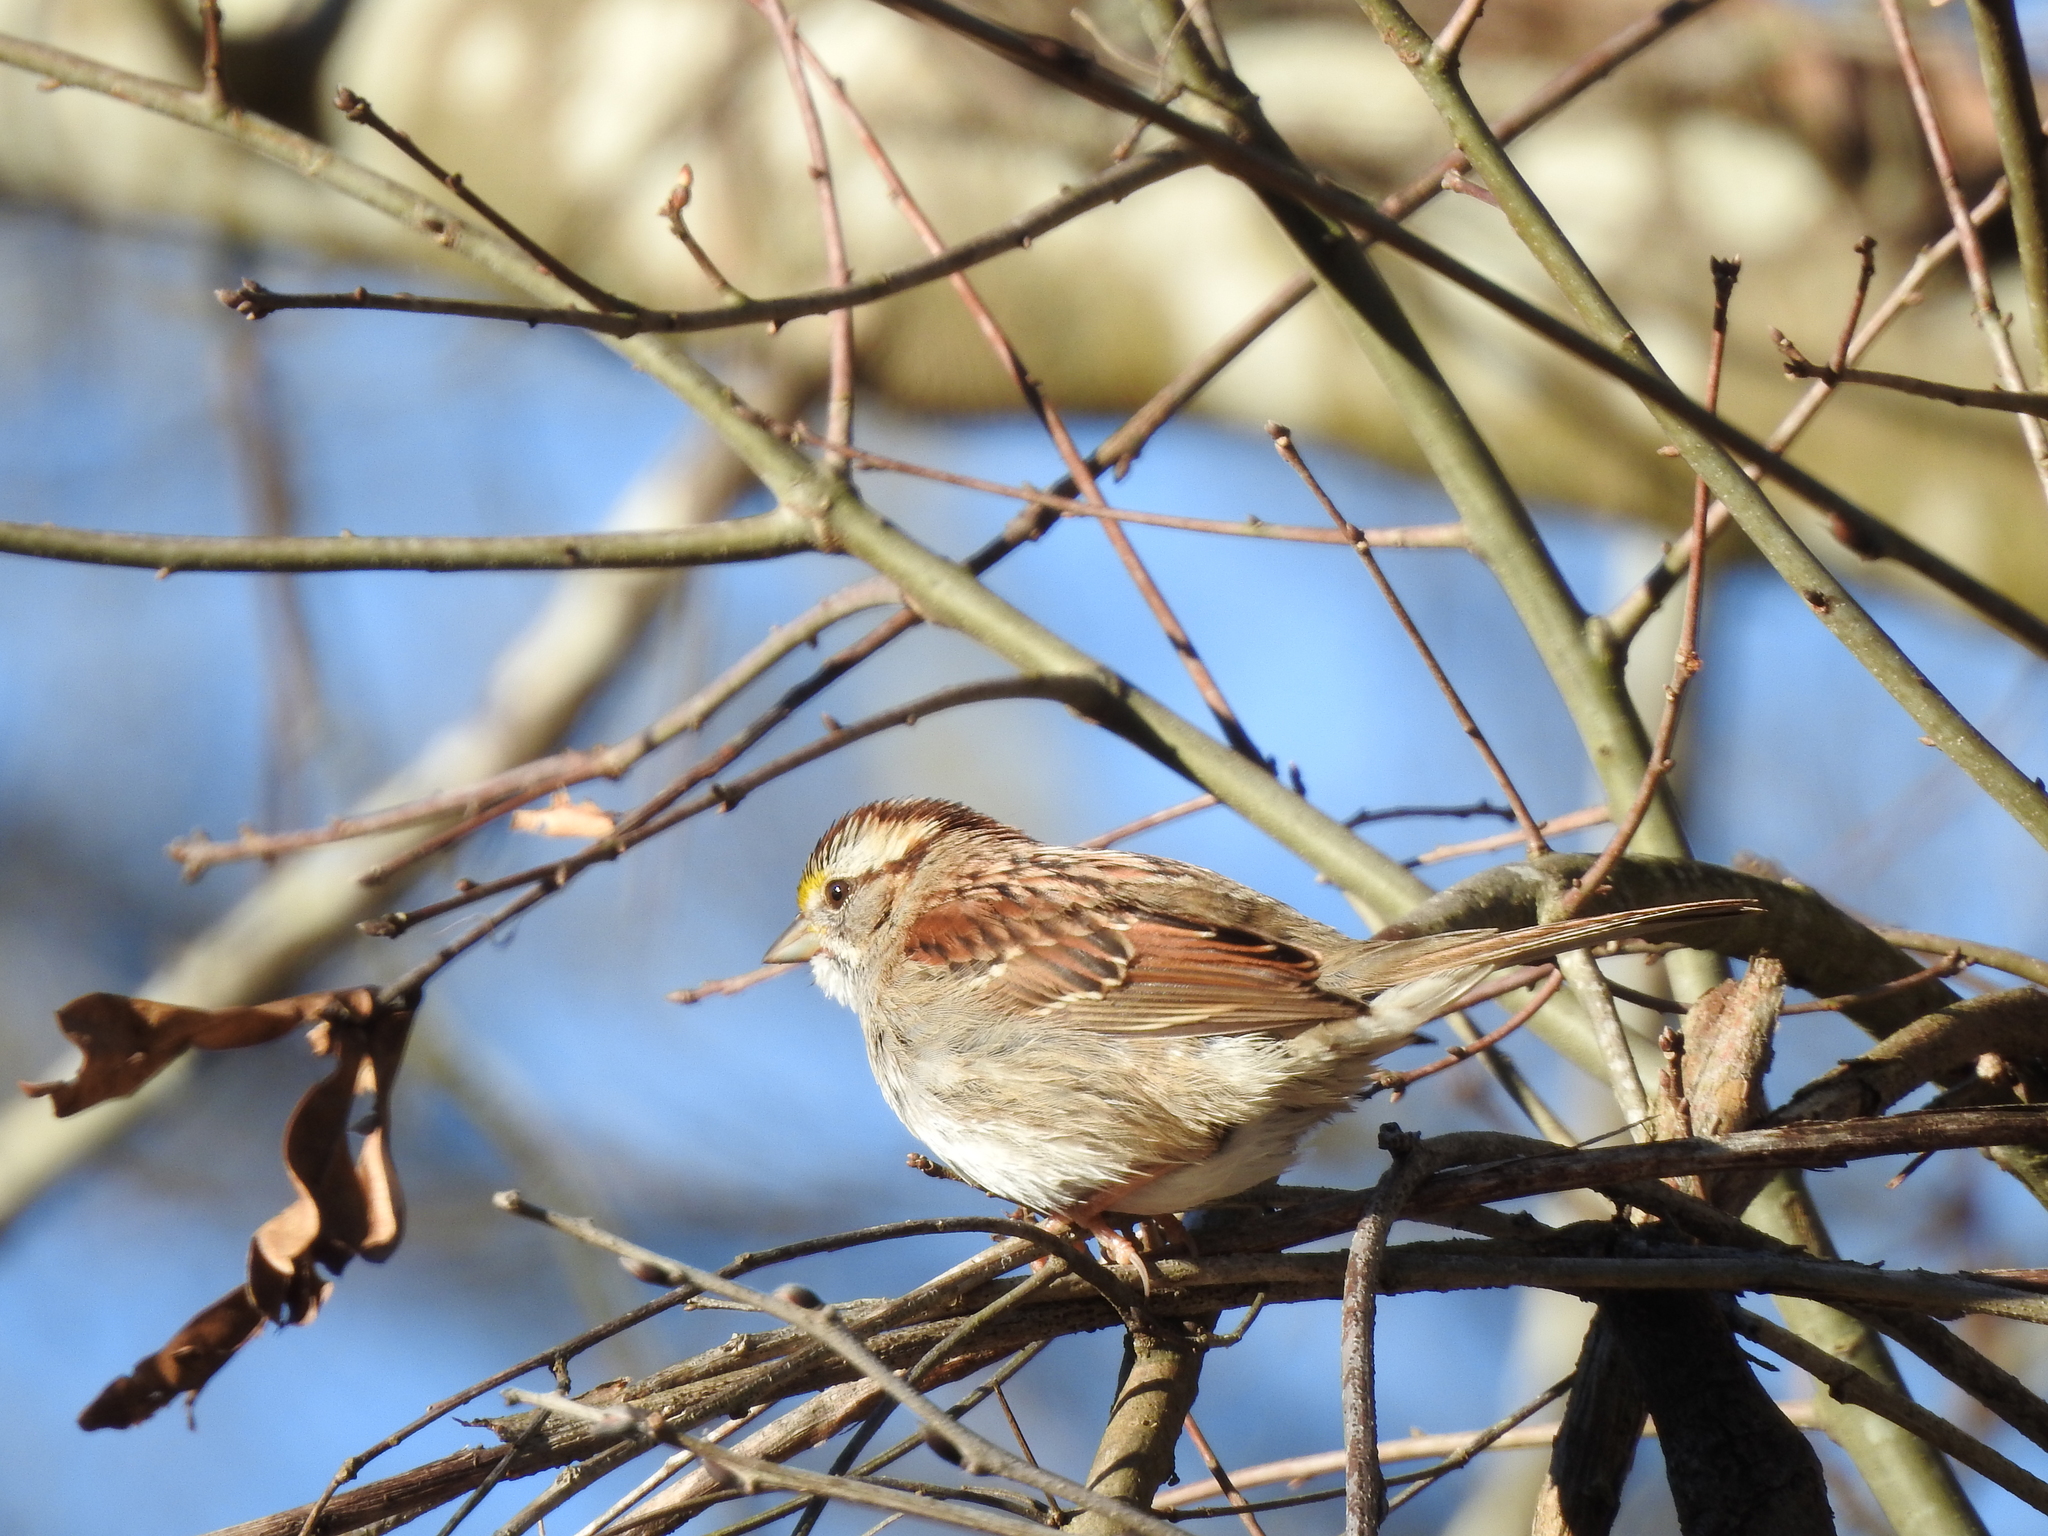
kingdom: Animalia
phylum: Chordata
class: Aves
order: Passeriformes
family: Passerellidae
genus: Zonotrichia
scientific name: Zonotrichia albicollis
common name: White-throated sparrow
